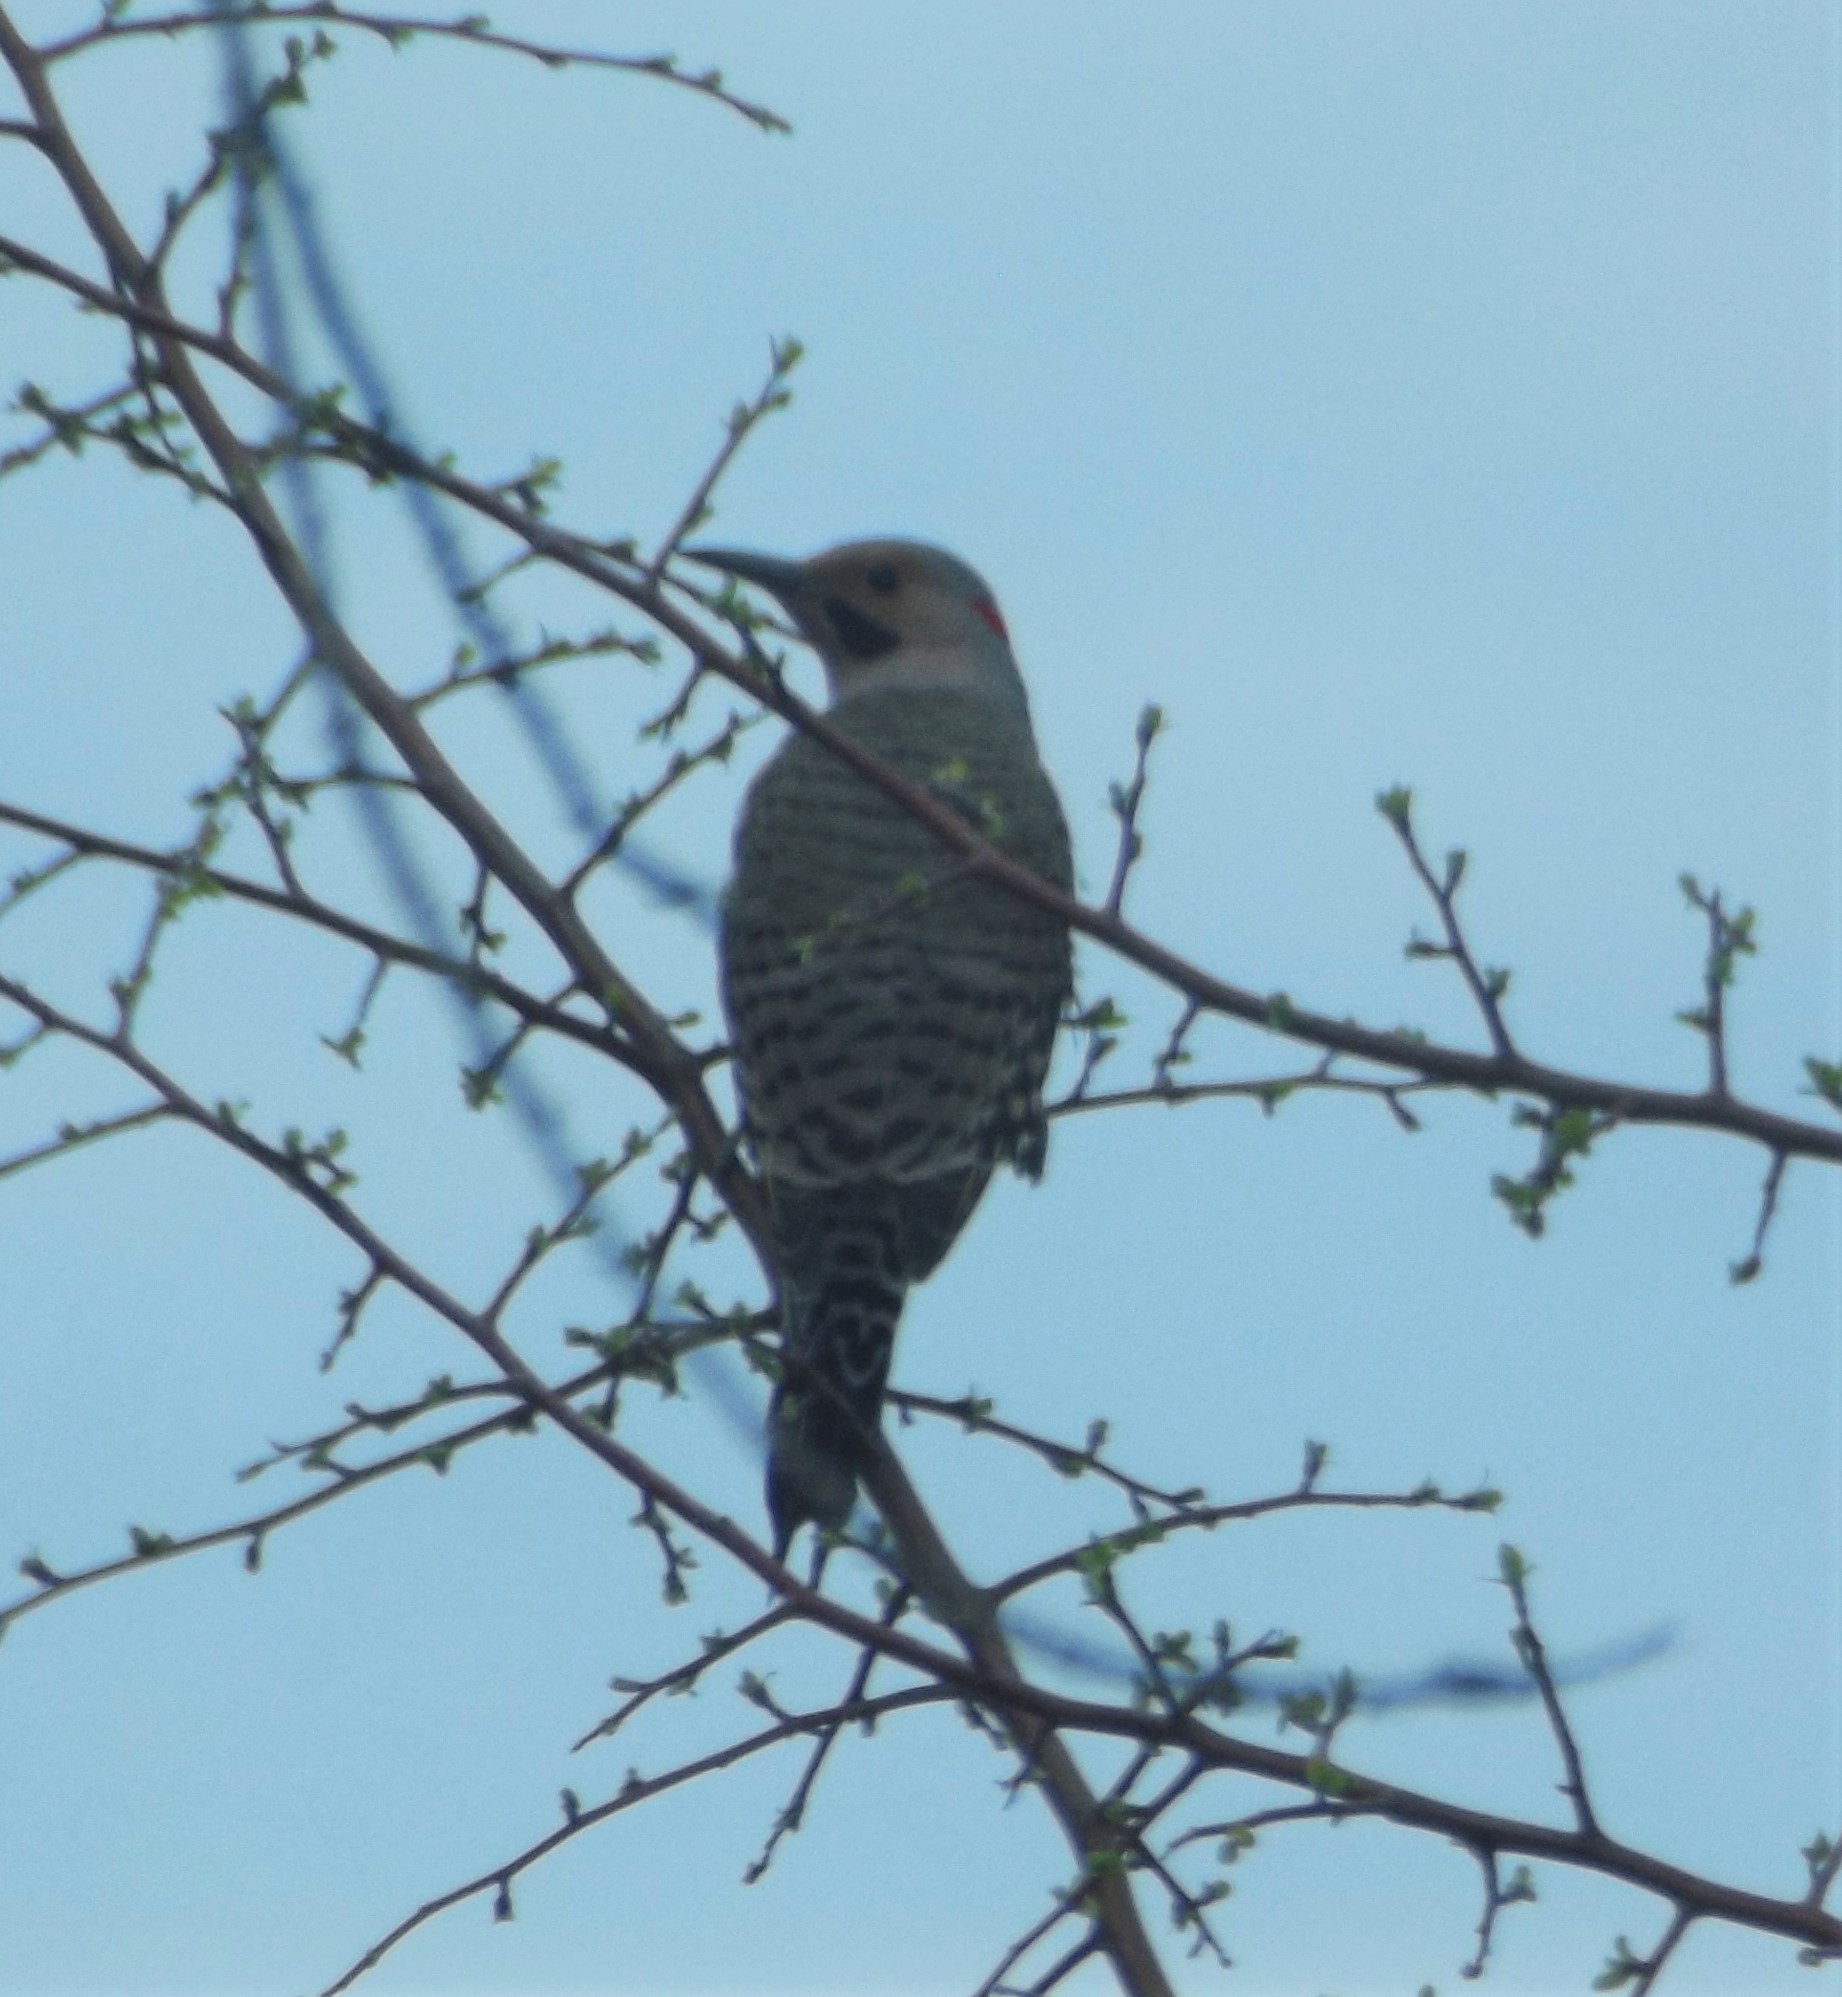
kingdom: Animalia
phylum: Chordata
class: Aves
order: Piciformes
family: Picidae
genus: Colaptes
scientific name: Colaptes auratus
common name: Northern flicker
